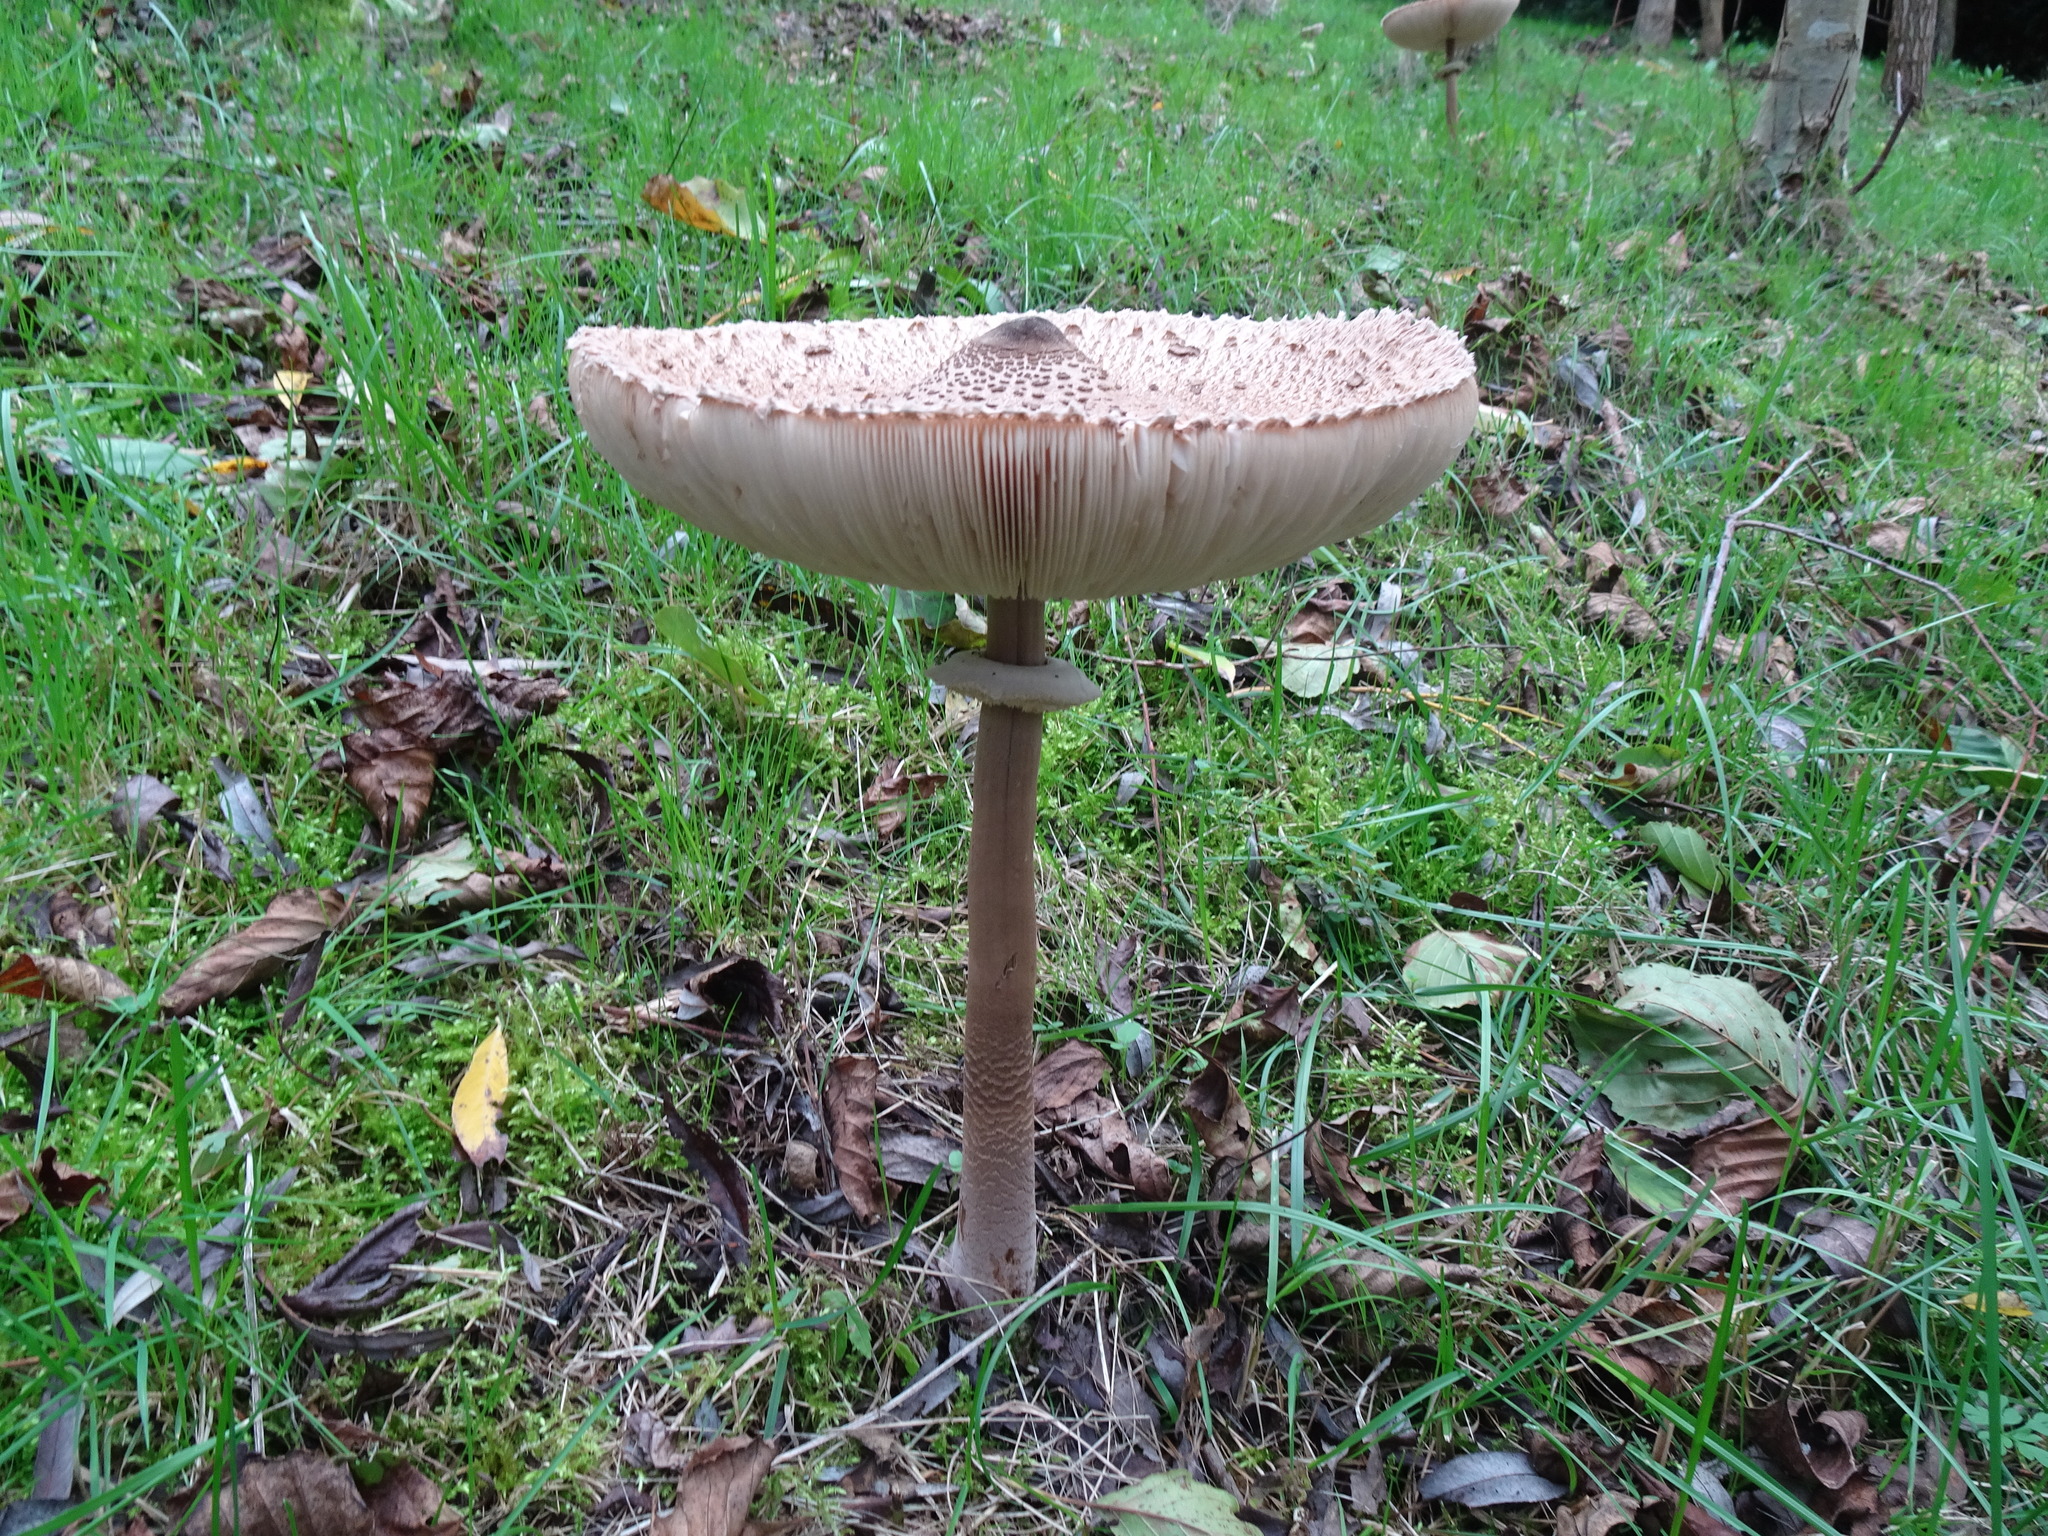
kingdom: Fungi
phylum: Basidiomycota
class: Agaricomycetes
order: Agaricales
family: Agaricaceae
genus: Macrolepiota
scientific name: Macrolepiota procera
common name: Parasol
